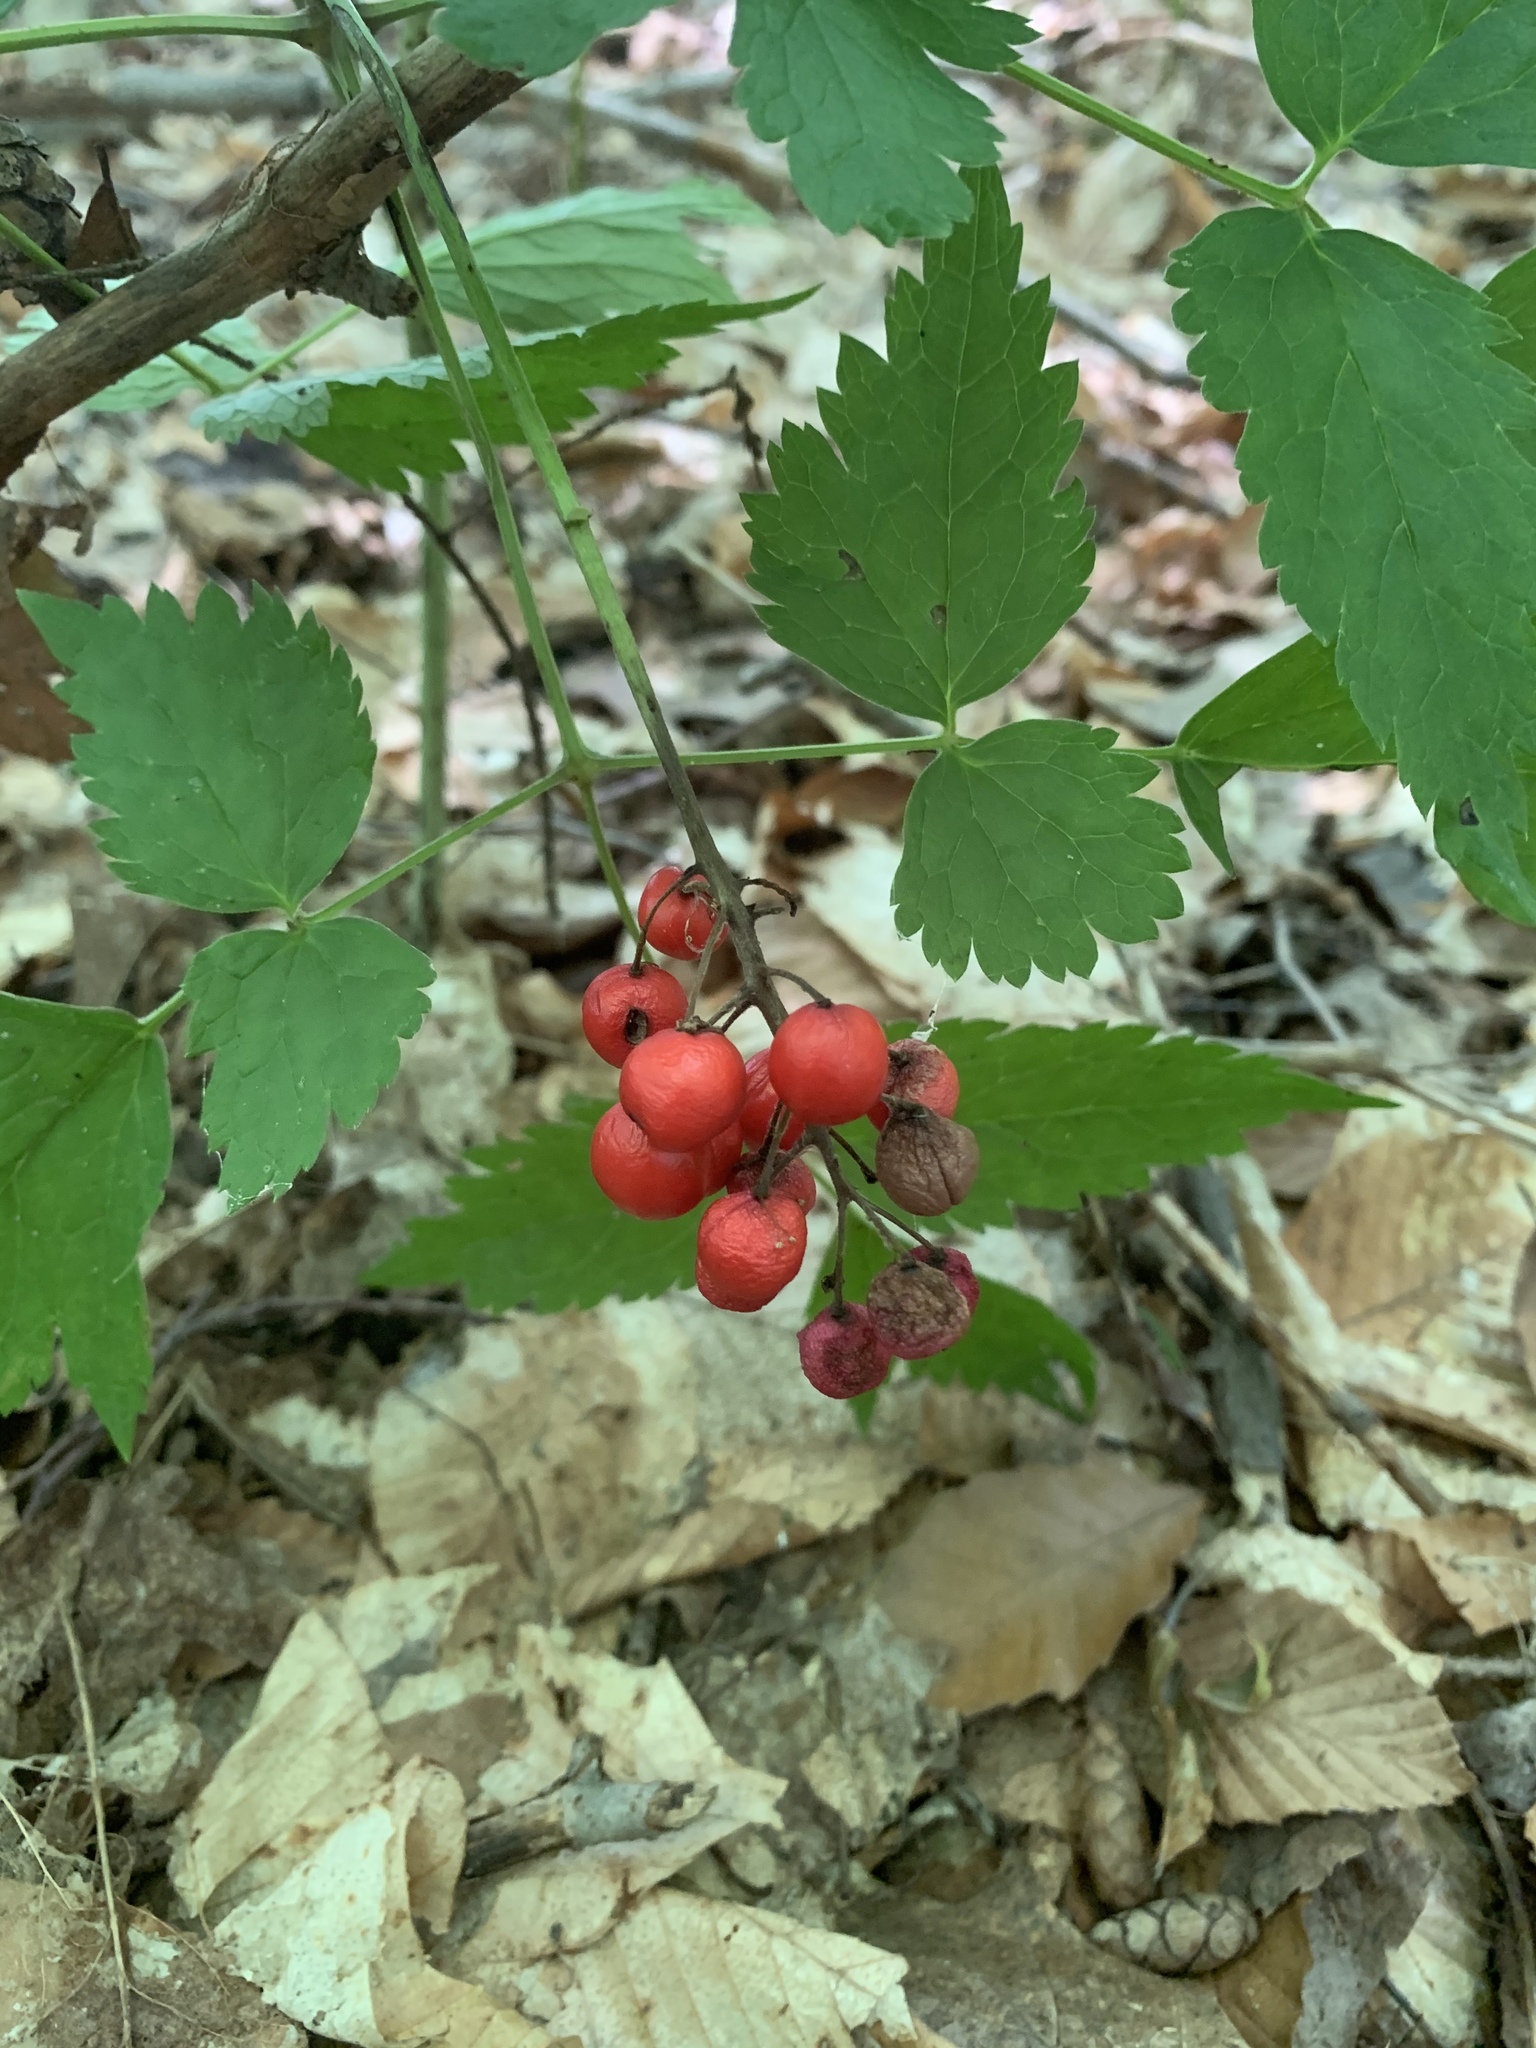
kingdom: Plantae
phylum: Tracheophyta
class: Magnoliopsida
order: Ranunculales
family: Ranunculaceae
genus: Actaea
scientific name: Actaea rubra
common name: Red baneberry
